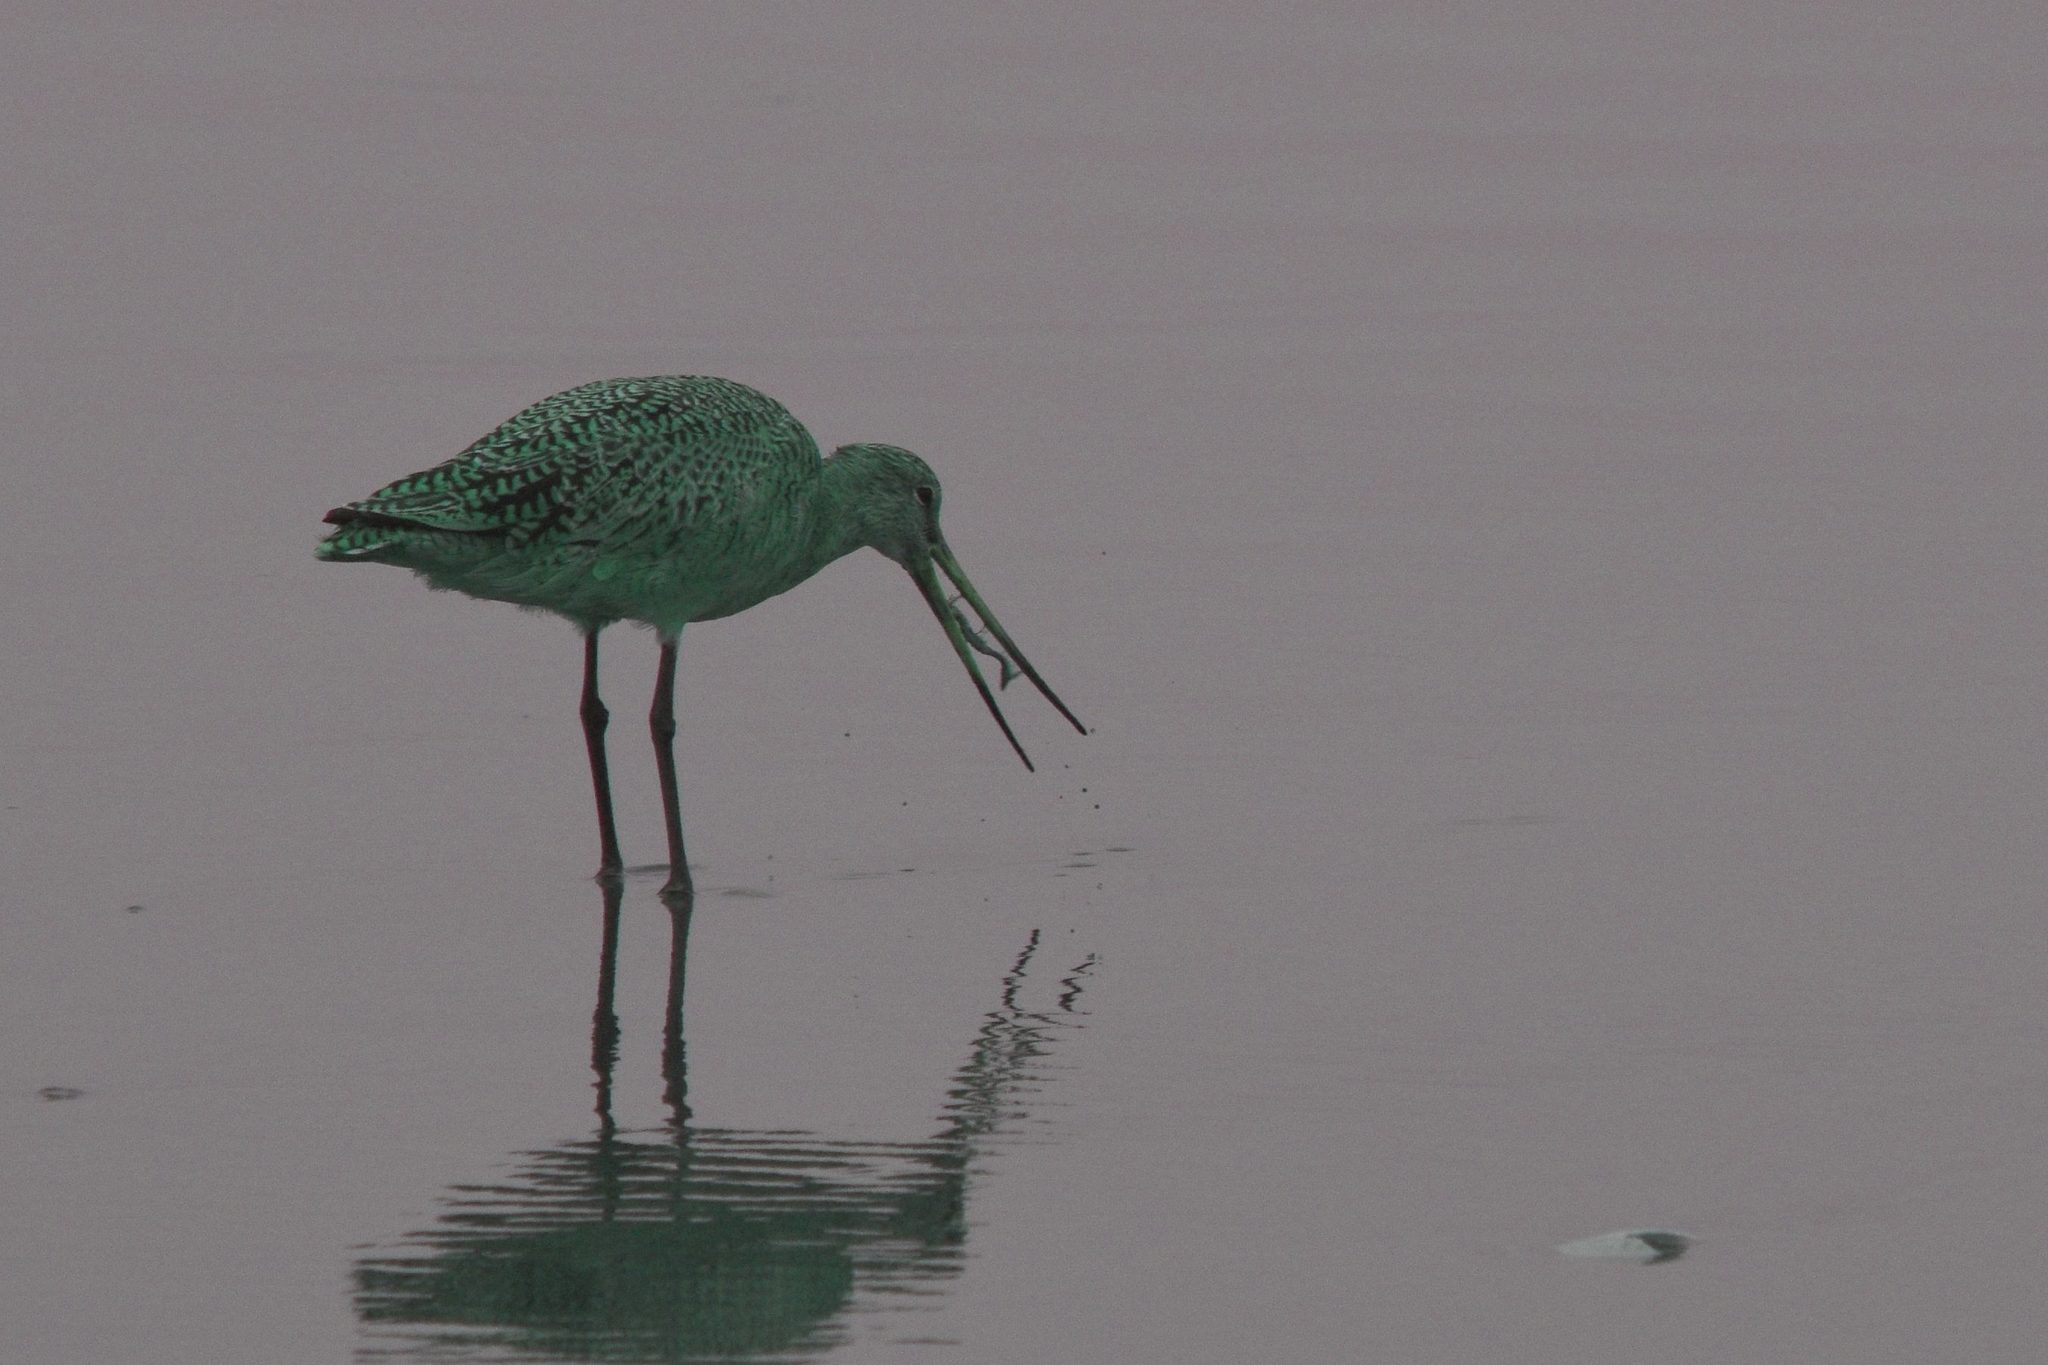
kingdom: Animalia
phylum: Chordata
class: Aves
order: Charadriiformes
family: Scolopacidae
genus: Limosa
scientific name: Limosa fedoa
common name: Marbled godwit
